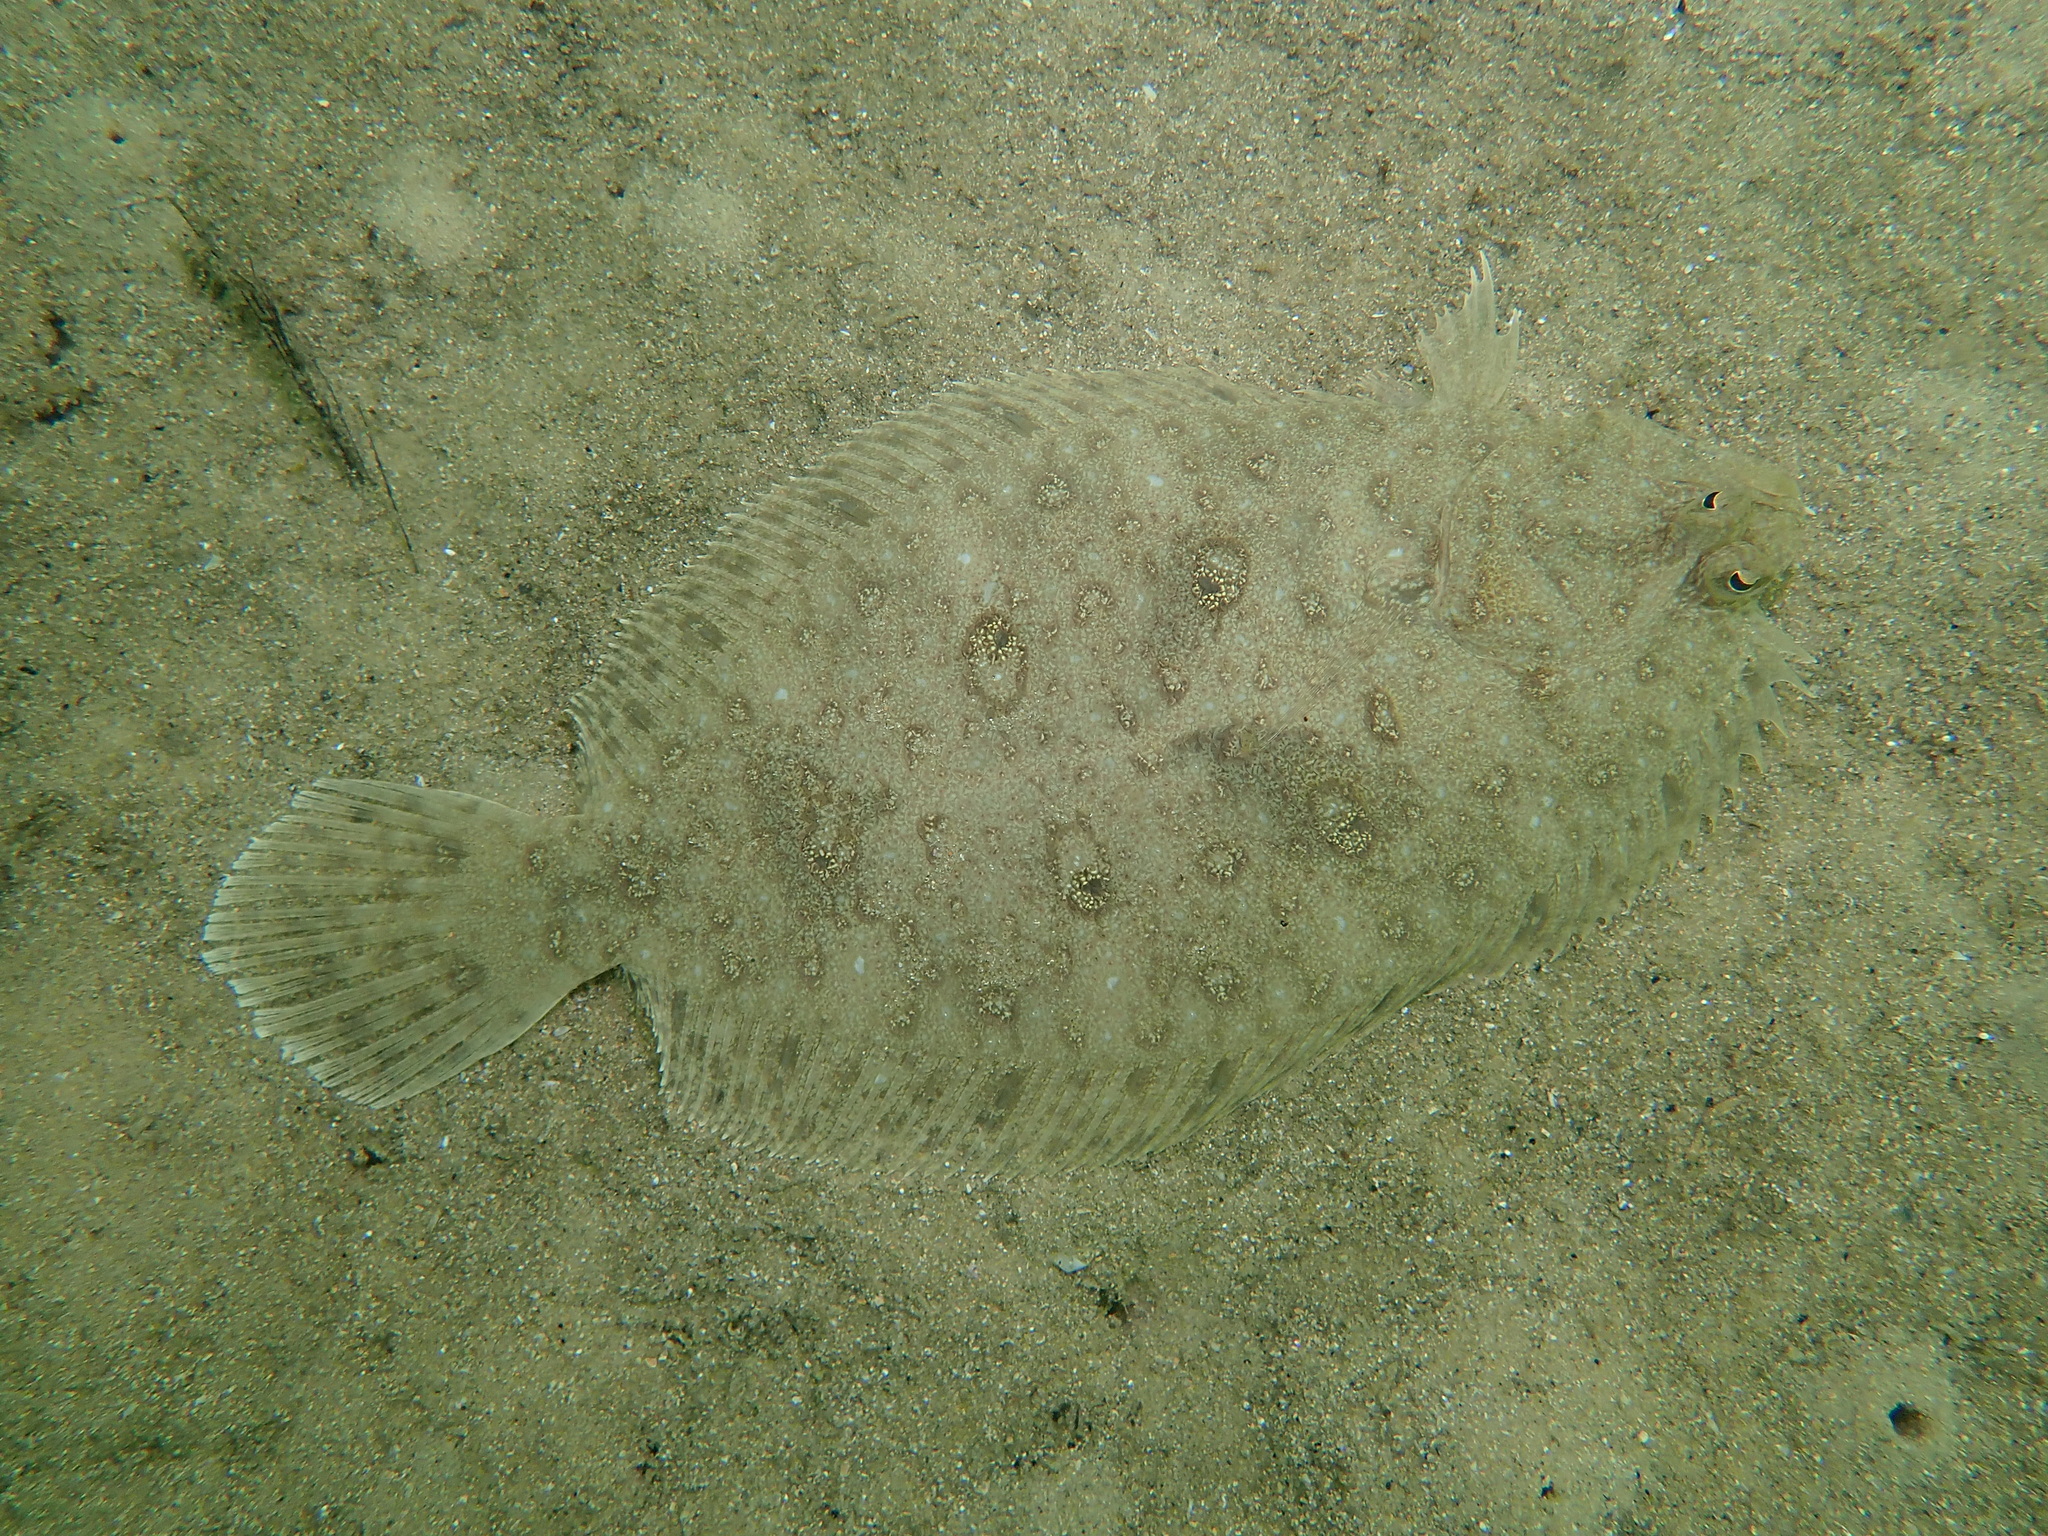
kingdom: Animalia
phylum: Chordata
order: Pleuronectiformes
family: Paralichthyidae
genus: Pseudorhombus
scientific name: Pseudorhombus jenynsii
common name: Smalltooth flounder
